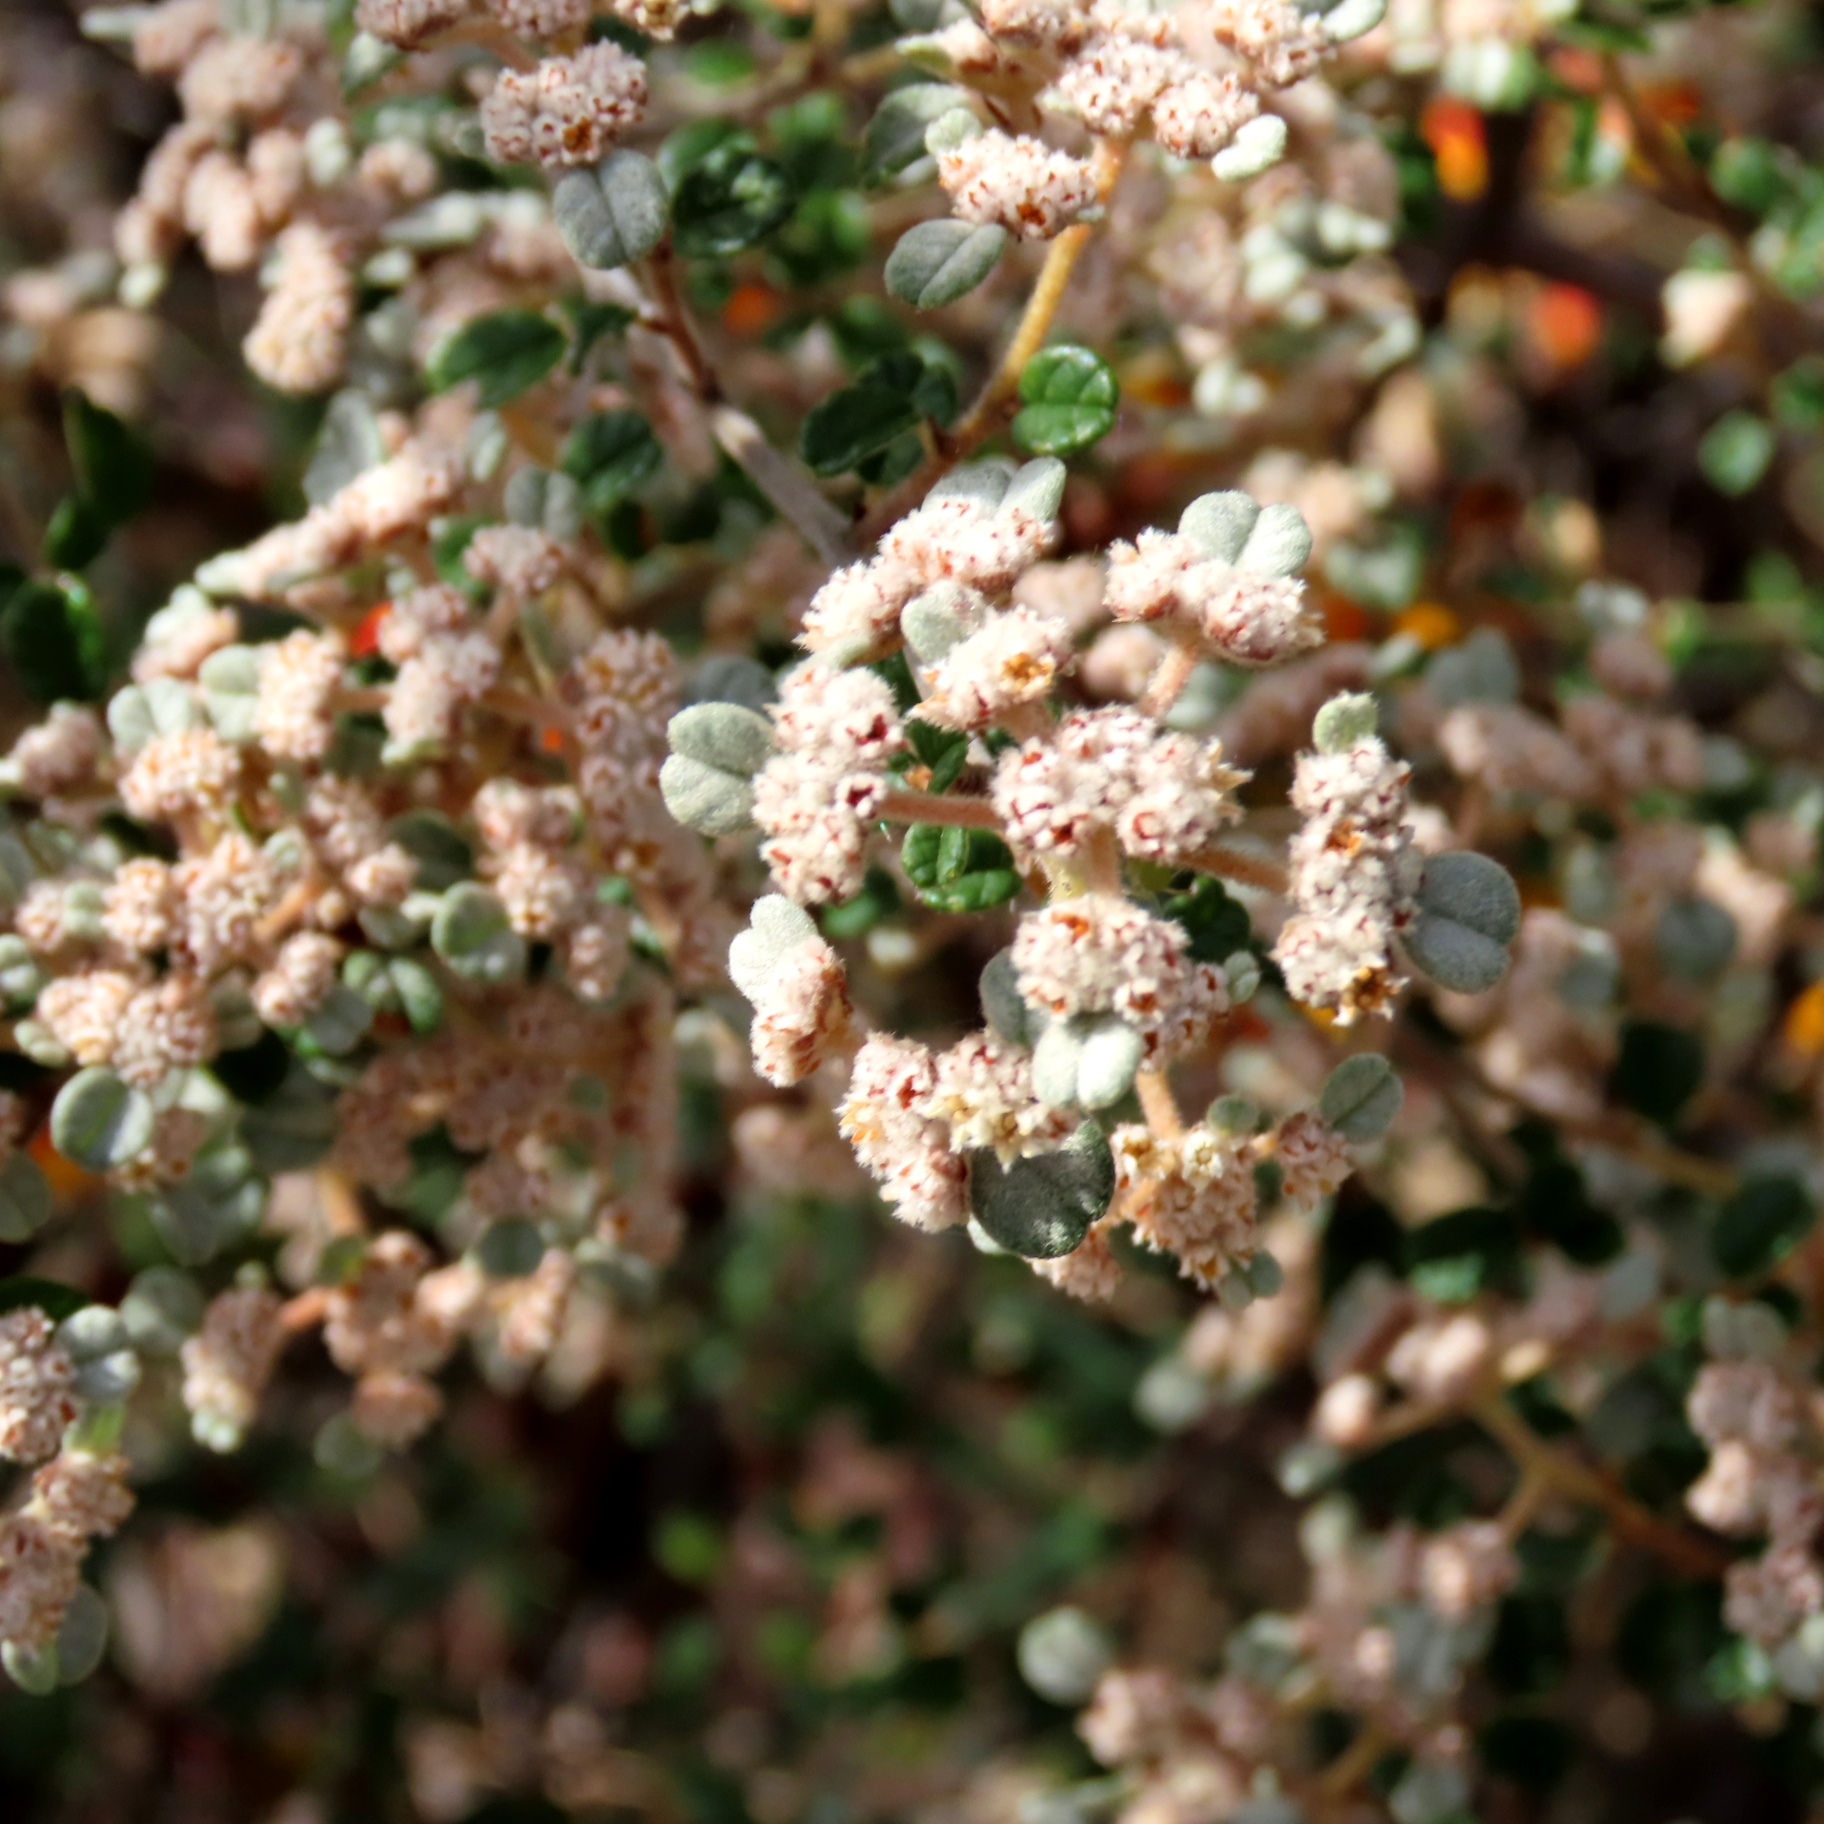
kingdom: Plantae
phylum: Tracheophyta
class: Magnoliopsida
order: Rosales
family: Rhamnaceae
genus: Spyridium
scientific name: Spyridium parvifolium
